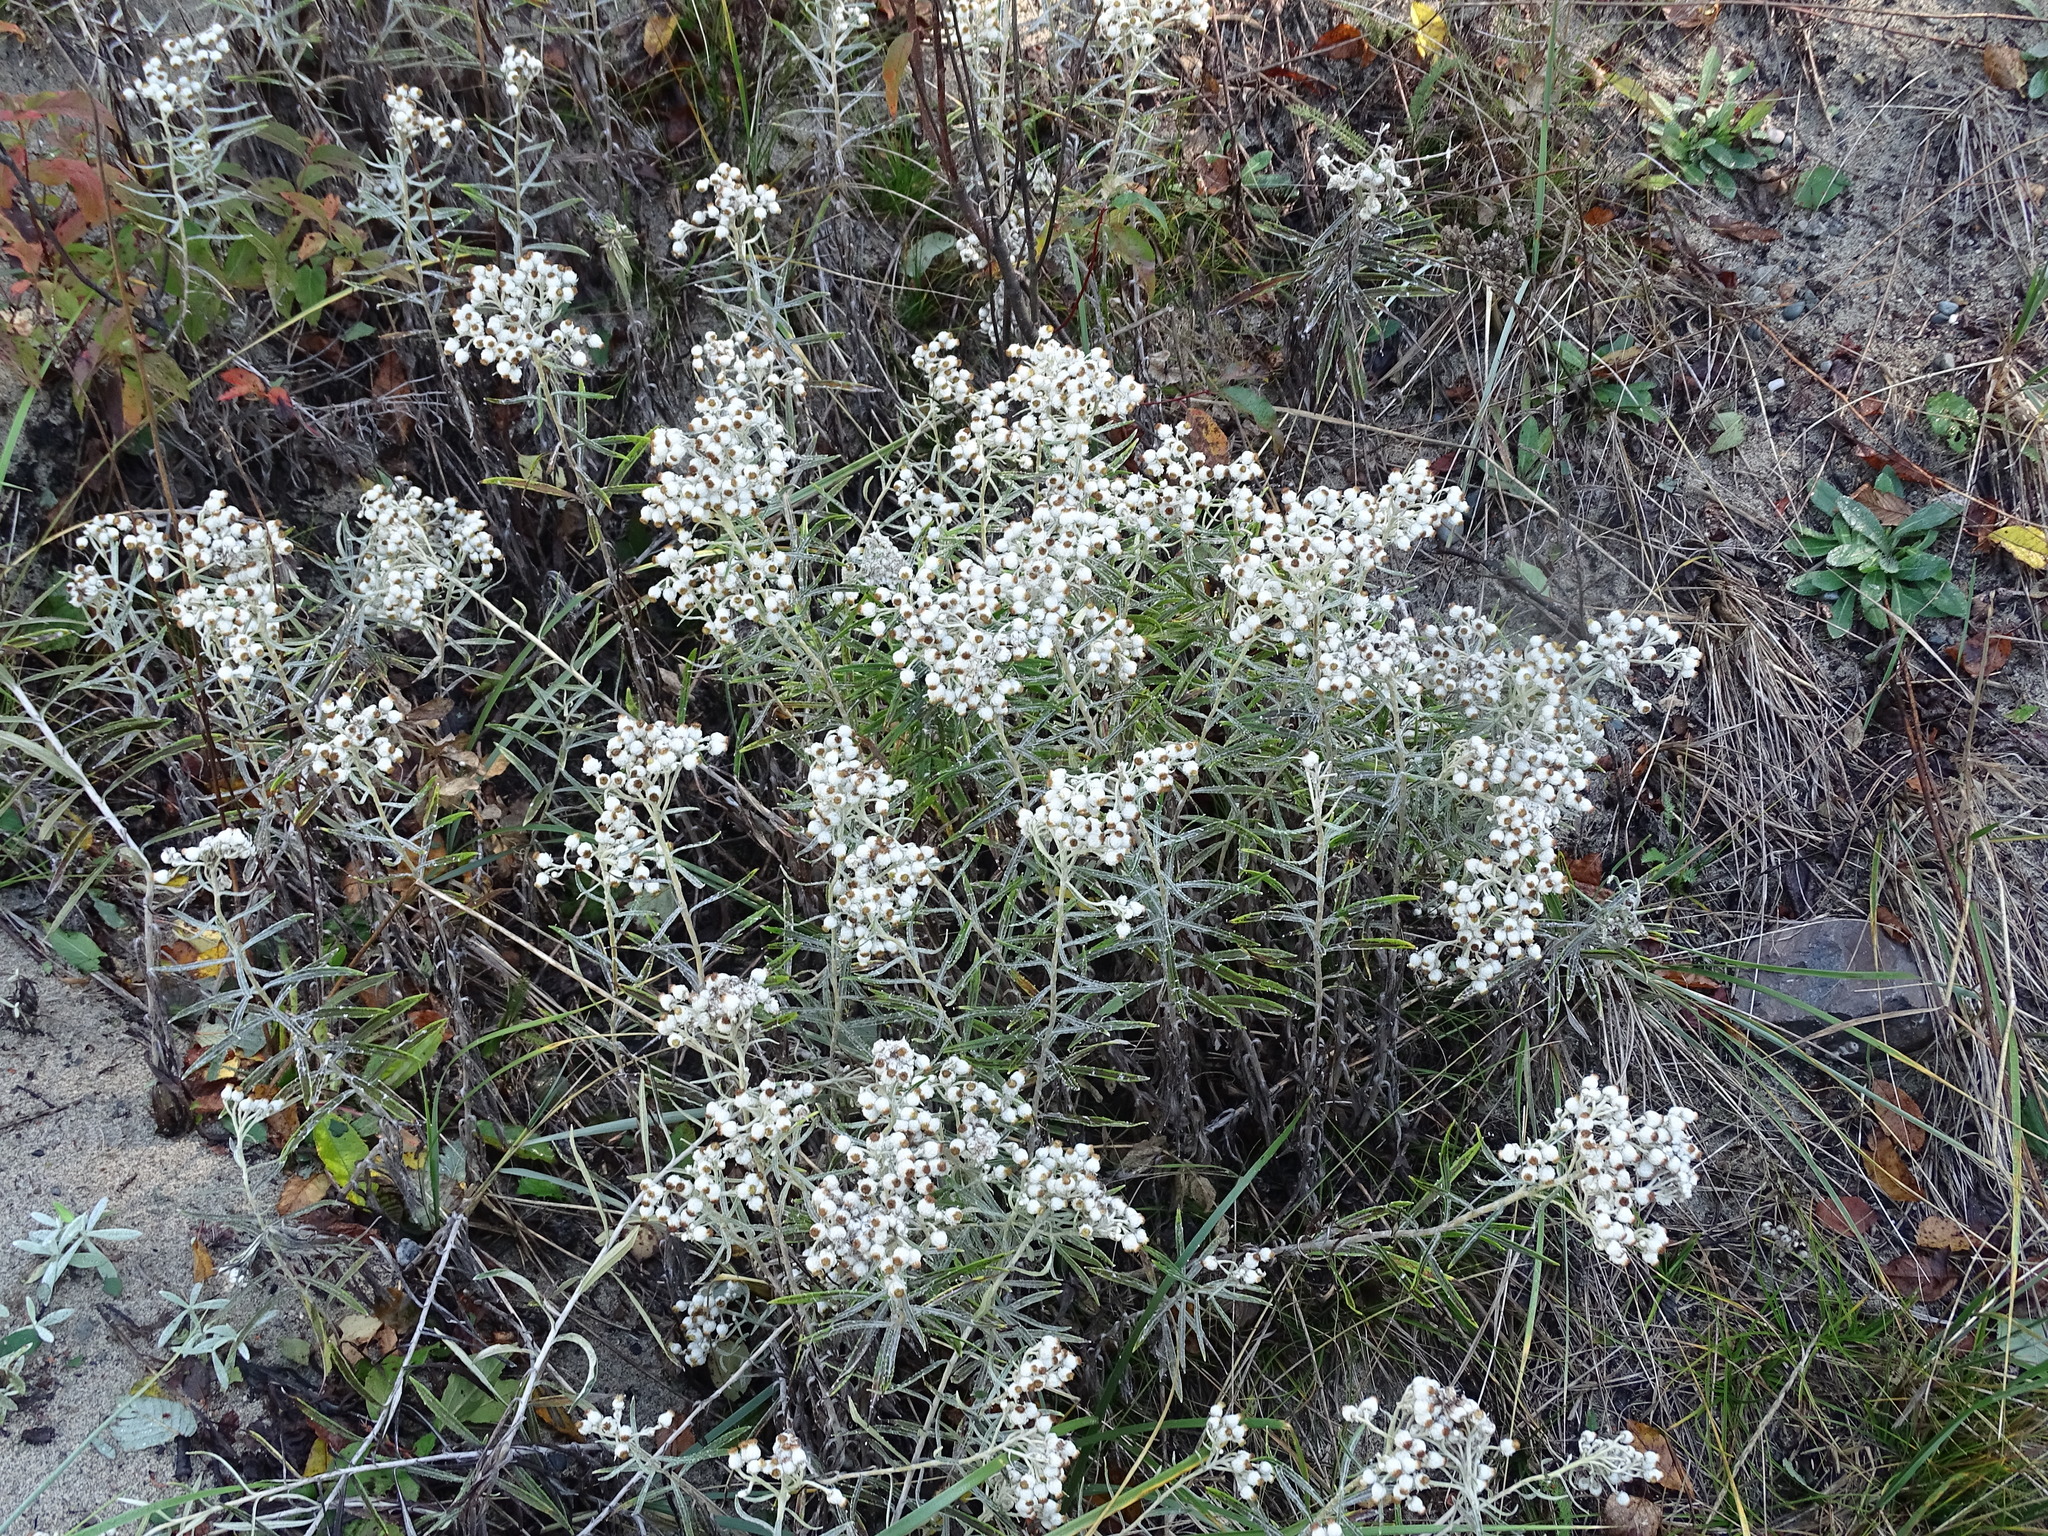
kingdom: Plantae
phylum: Tracheophyta
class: Magnoliopsida
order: Asterales
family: Asteraceae
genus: Anaphalis
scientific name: Anaphalis margaritacea
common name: Pearly everlasting
